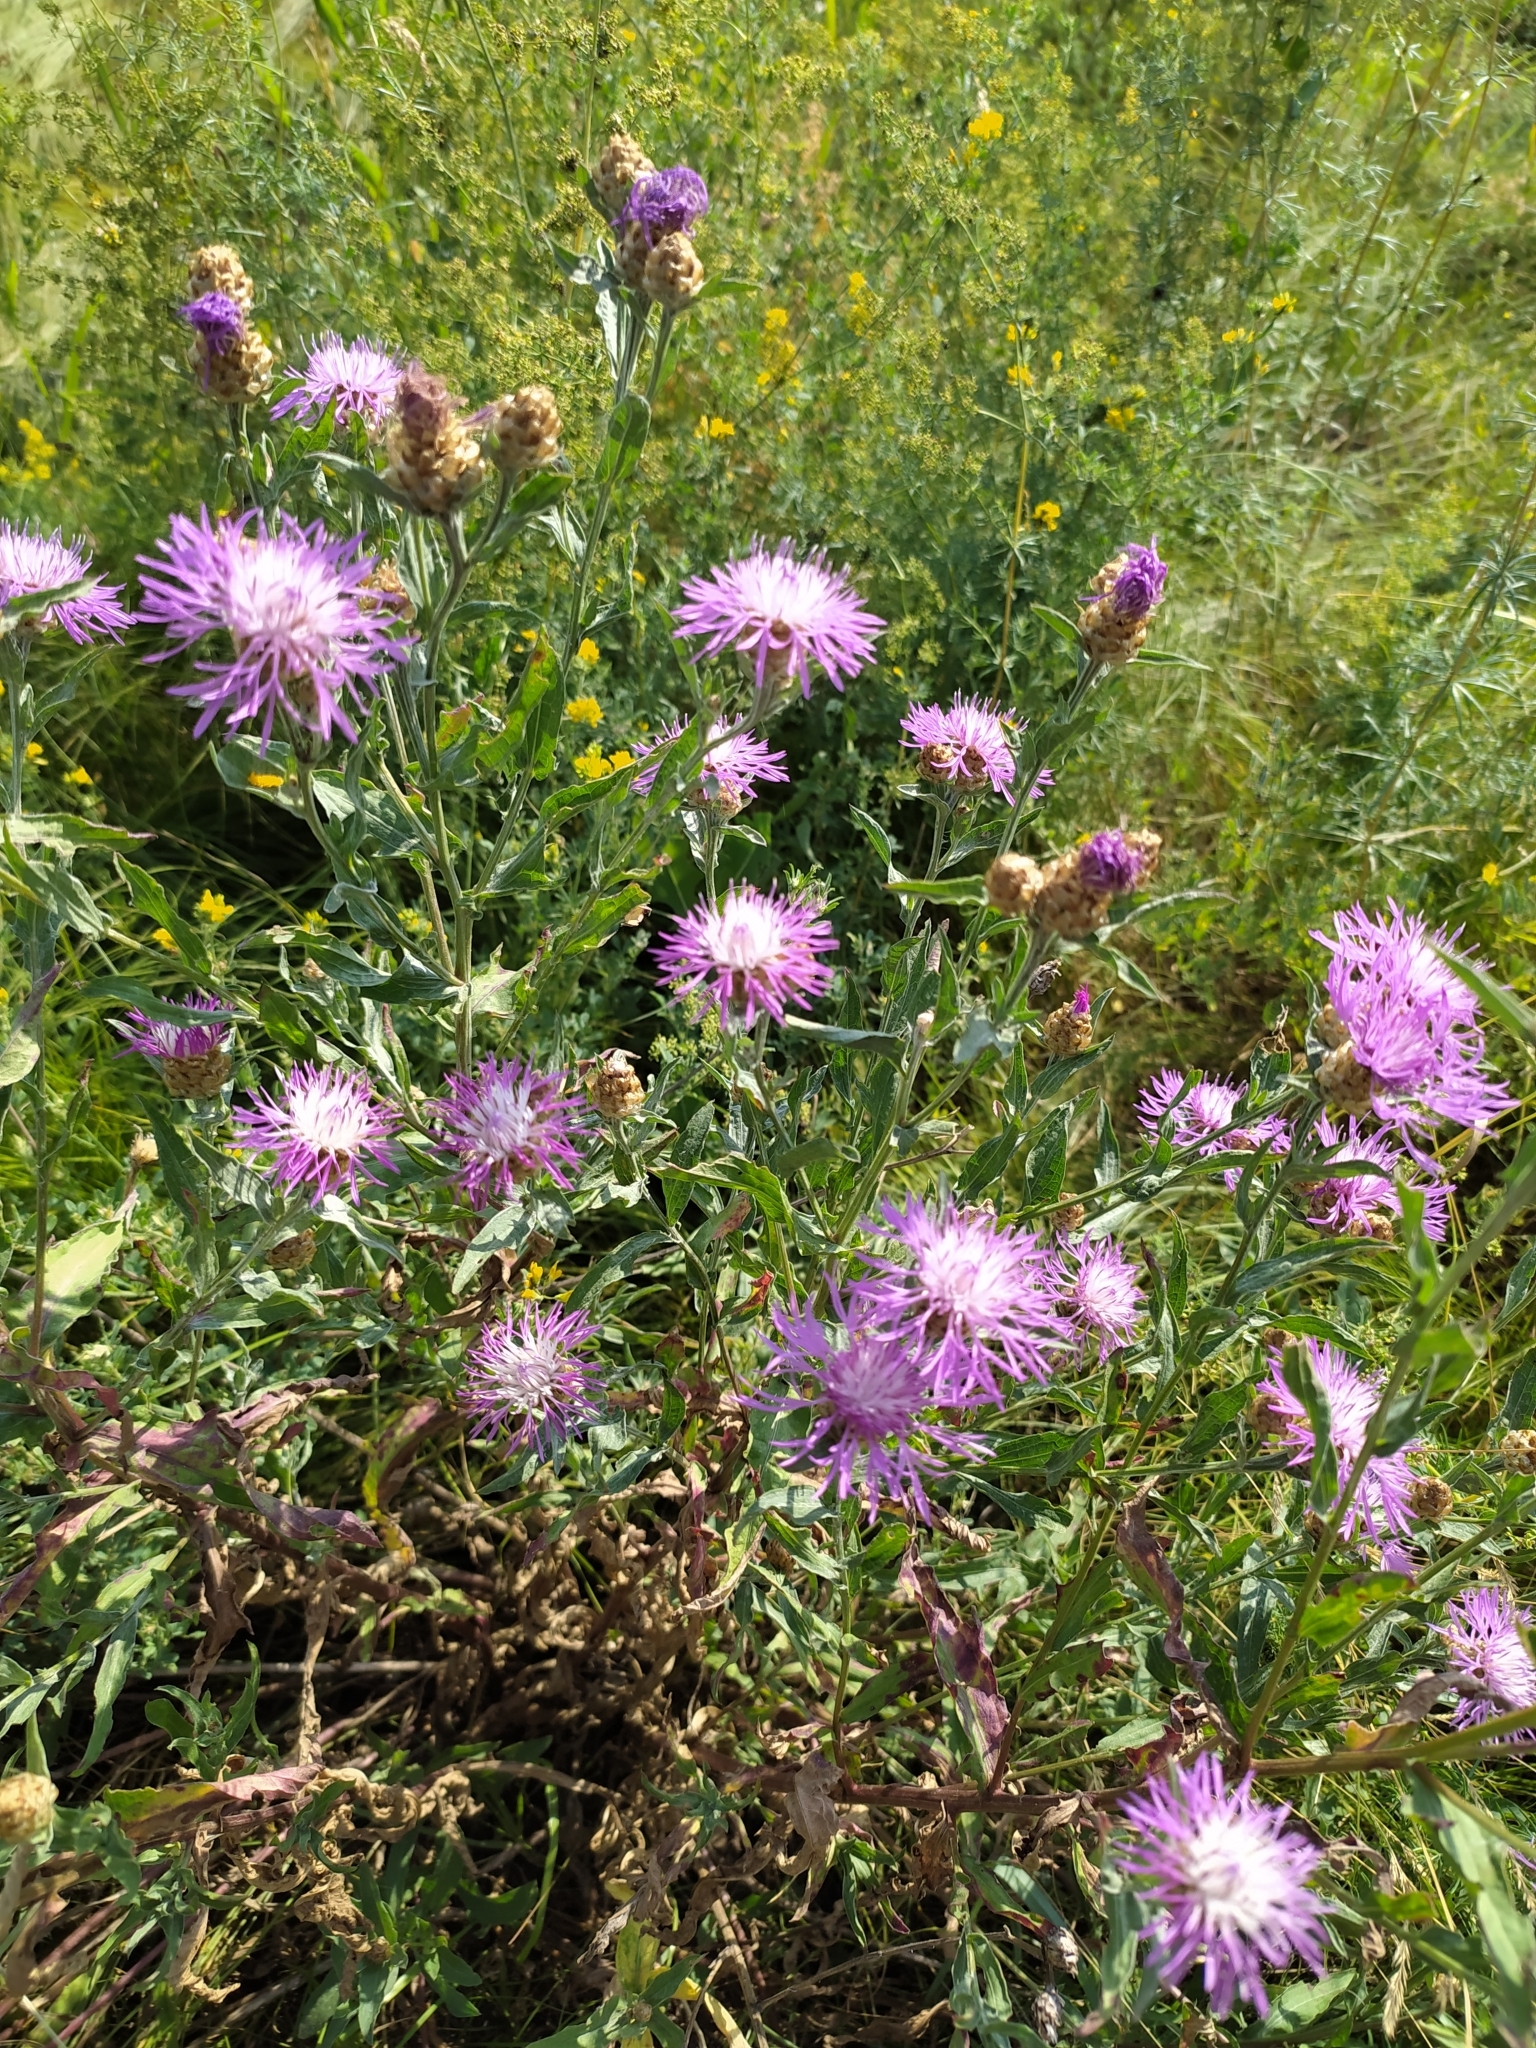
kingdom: Plantae
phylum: Tracheophyta
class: Magnoliopsida
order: Asterales
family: Asteraceae
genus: Centaurea
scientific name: Centaurea jacea
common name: Brown knapweed
